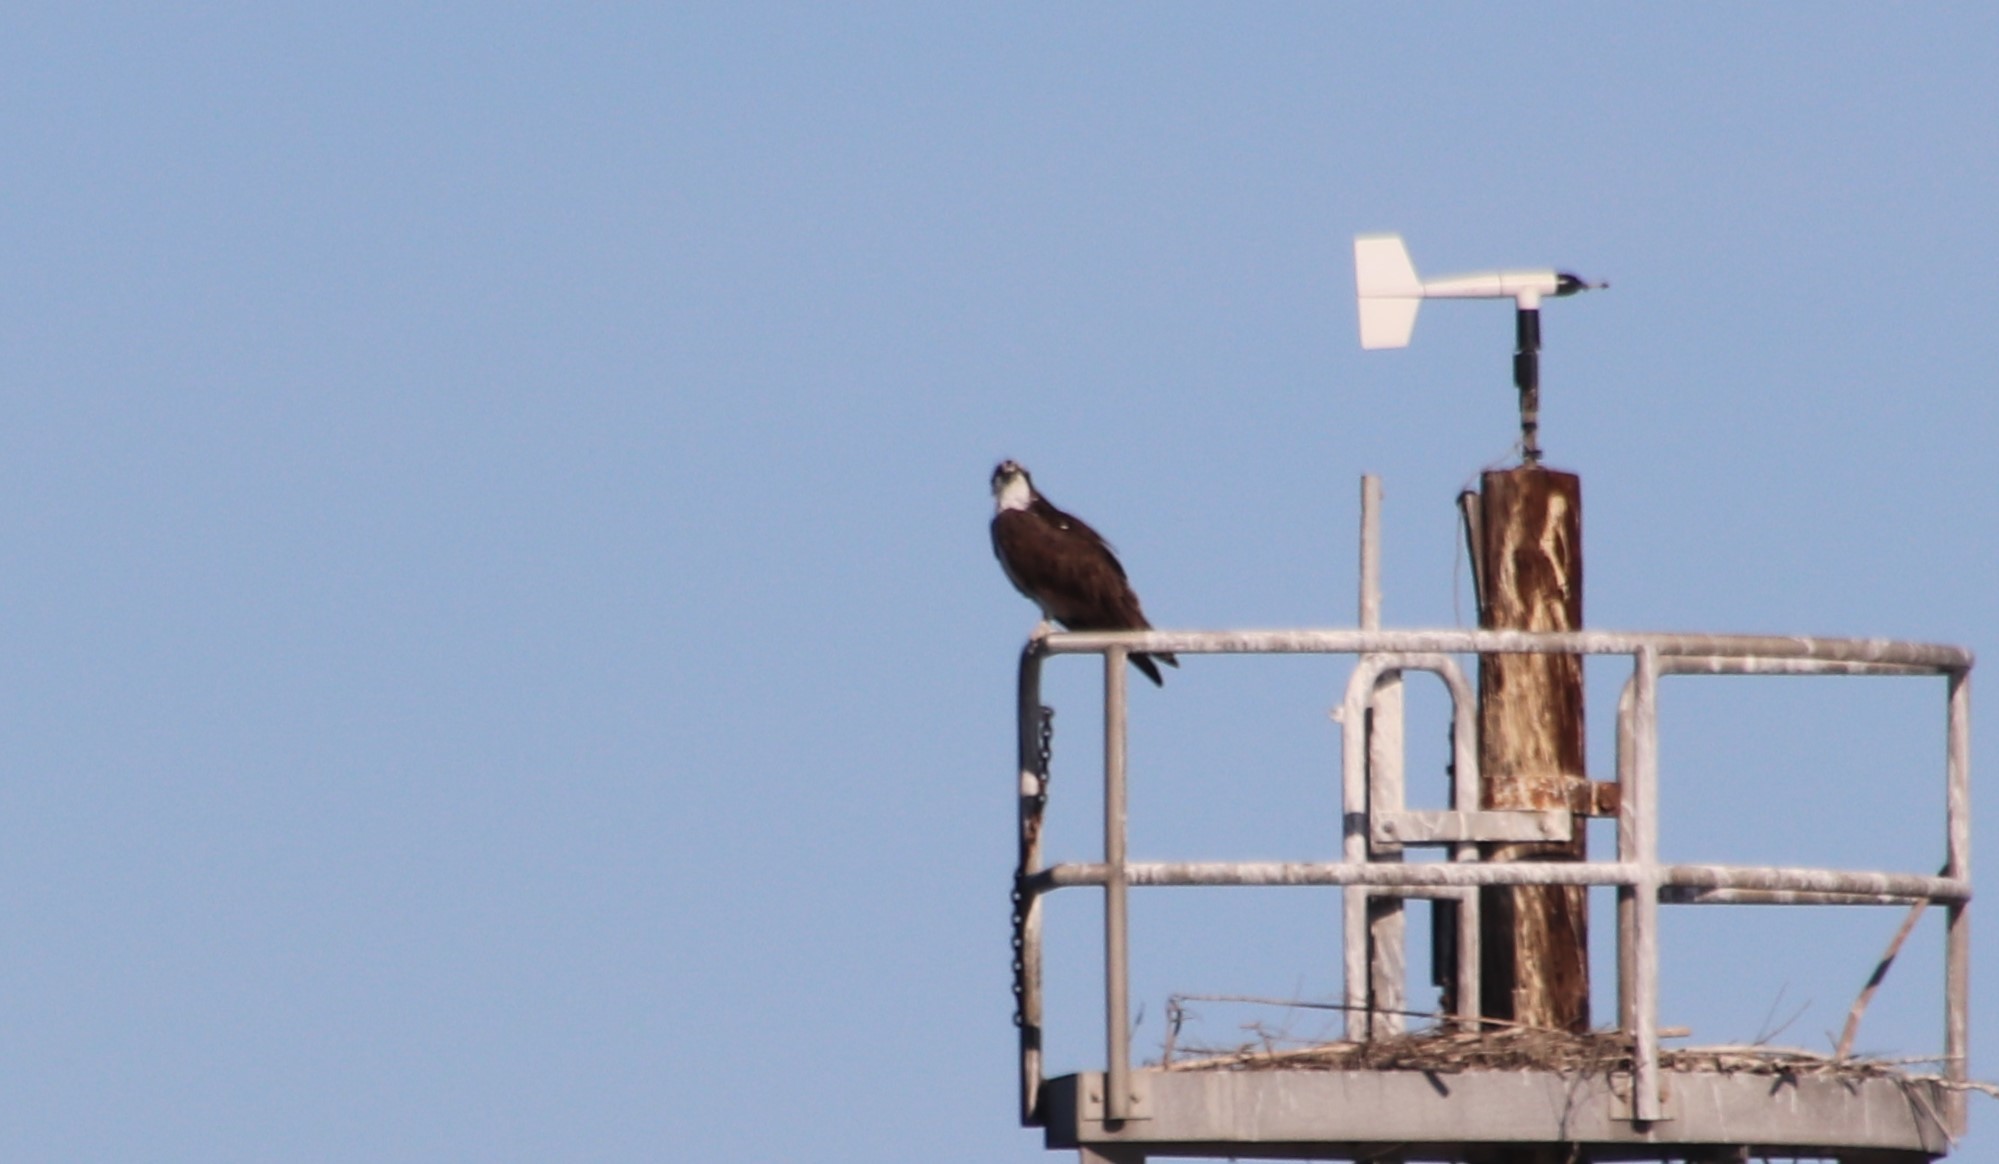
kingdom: Animalia
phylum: Chordata
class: Aves
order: Accipitriformes
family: Pandionidae
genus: Pandion
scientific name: Pandion haliaetus
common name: Osprey
